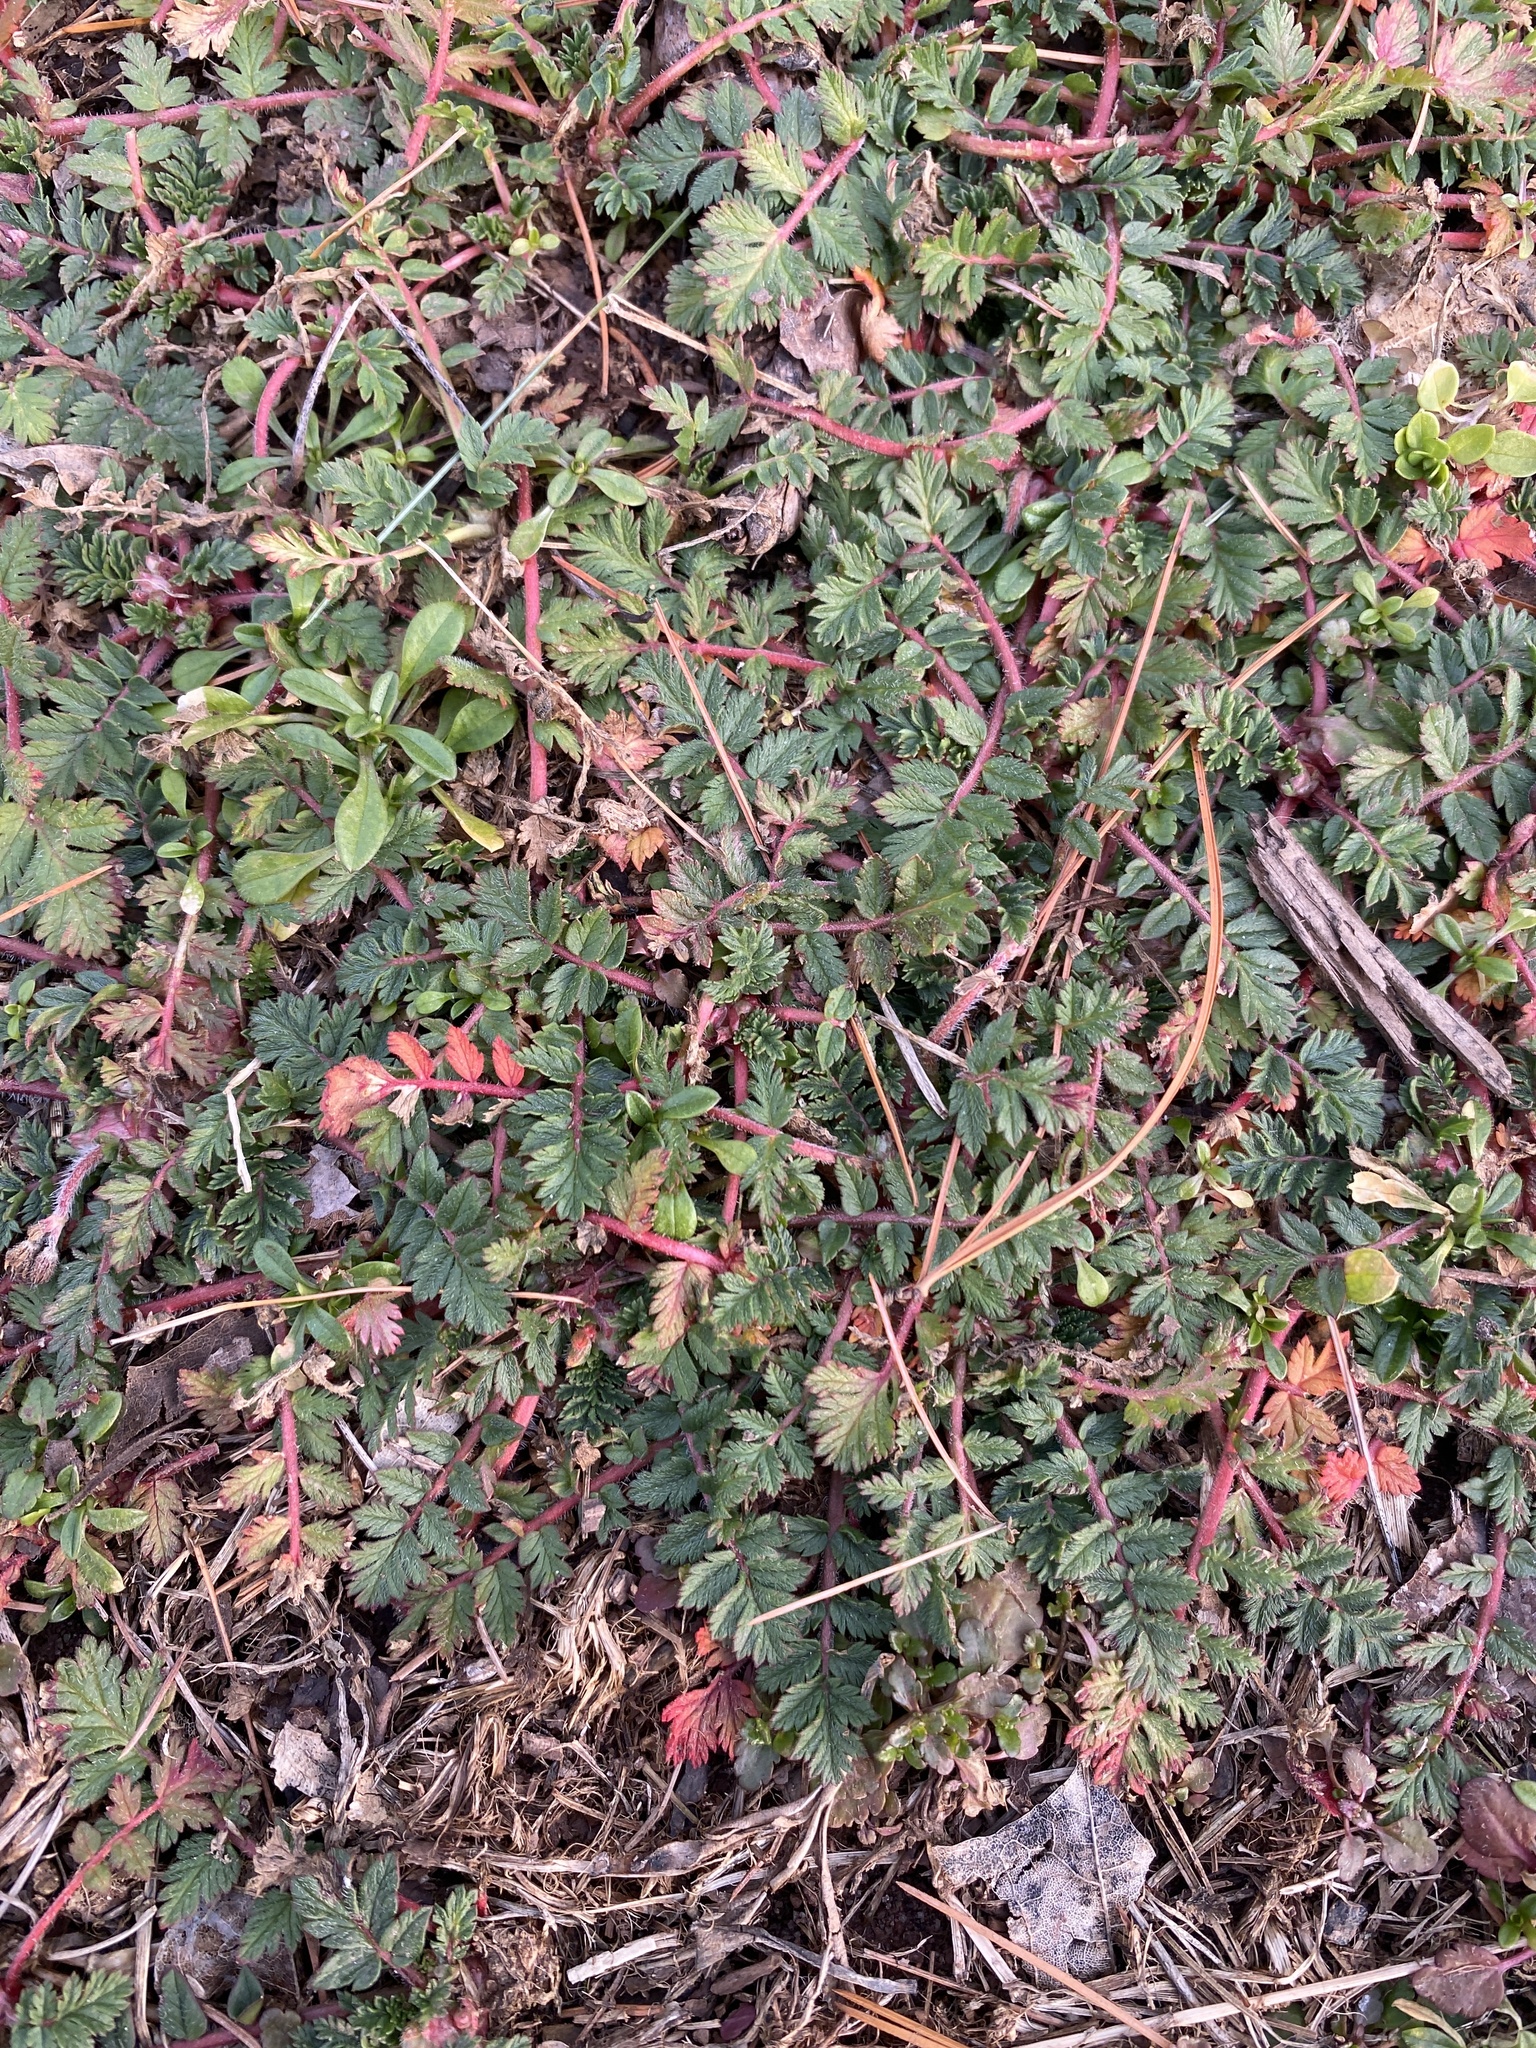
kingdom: Plantae
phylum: Tracheophyta
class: Magnoliopsida
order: Geraniales
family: Geraniaceae
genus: Erodium
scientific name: Erodium cicutarium
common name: Common stork's-bill
